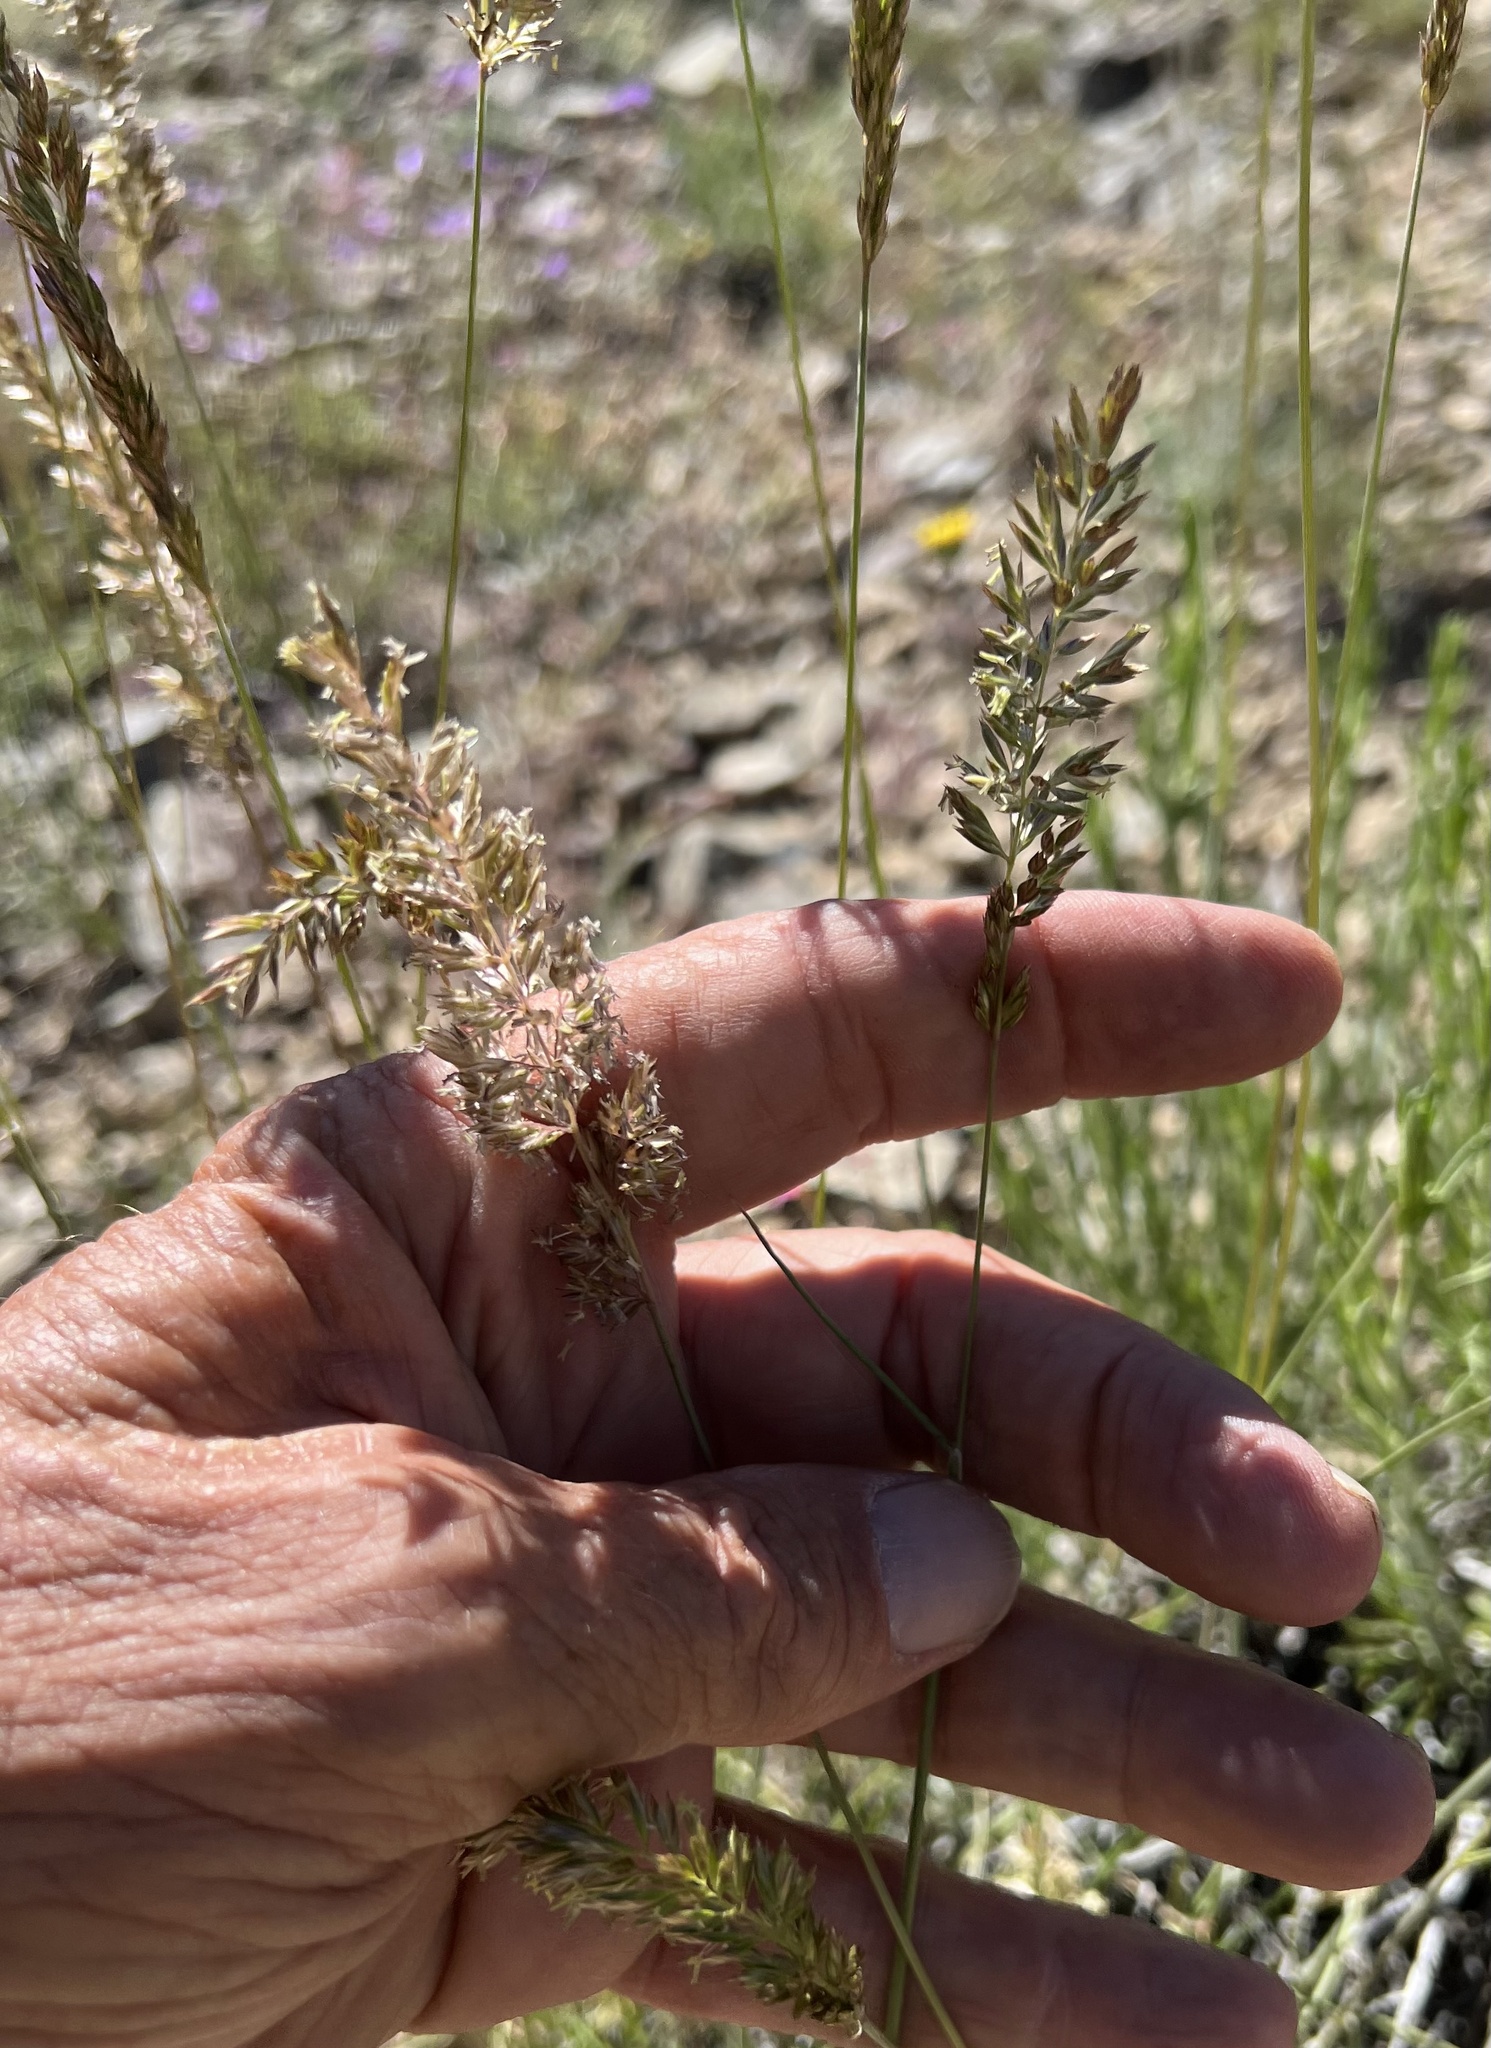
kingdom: Plantae
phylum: Tracheophyta
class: Liliopsida
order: Poales
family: Poaceae
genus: Koeleria
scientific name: Koeleria macrantha
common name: Crested hair-grass
